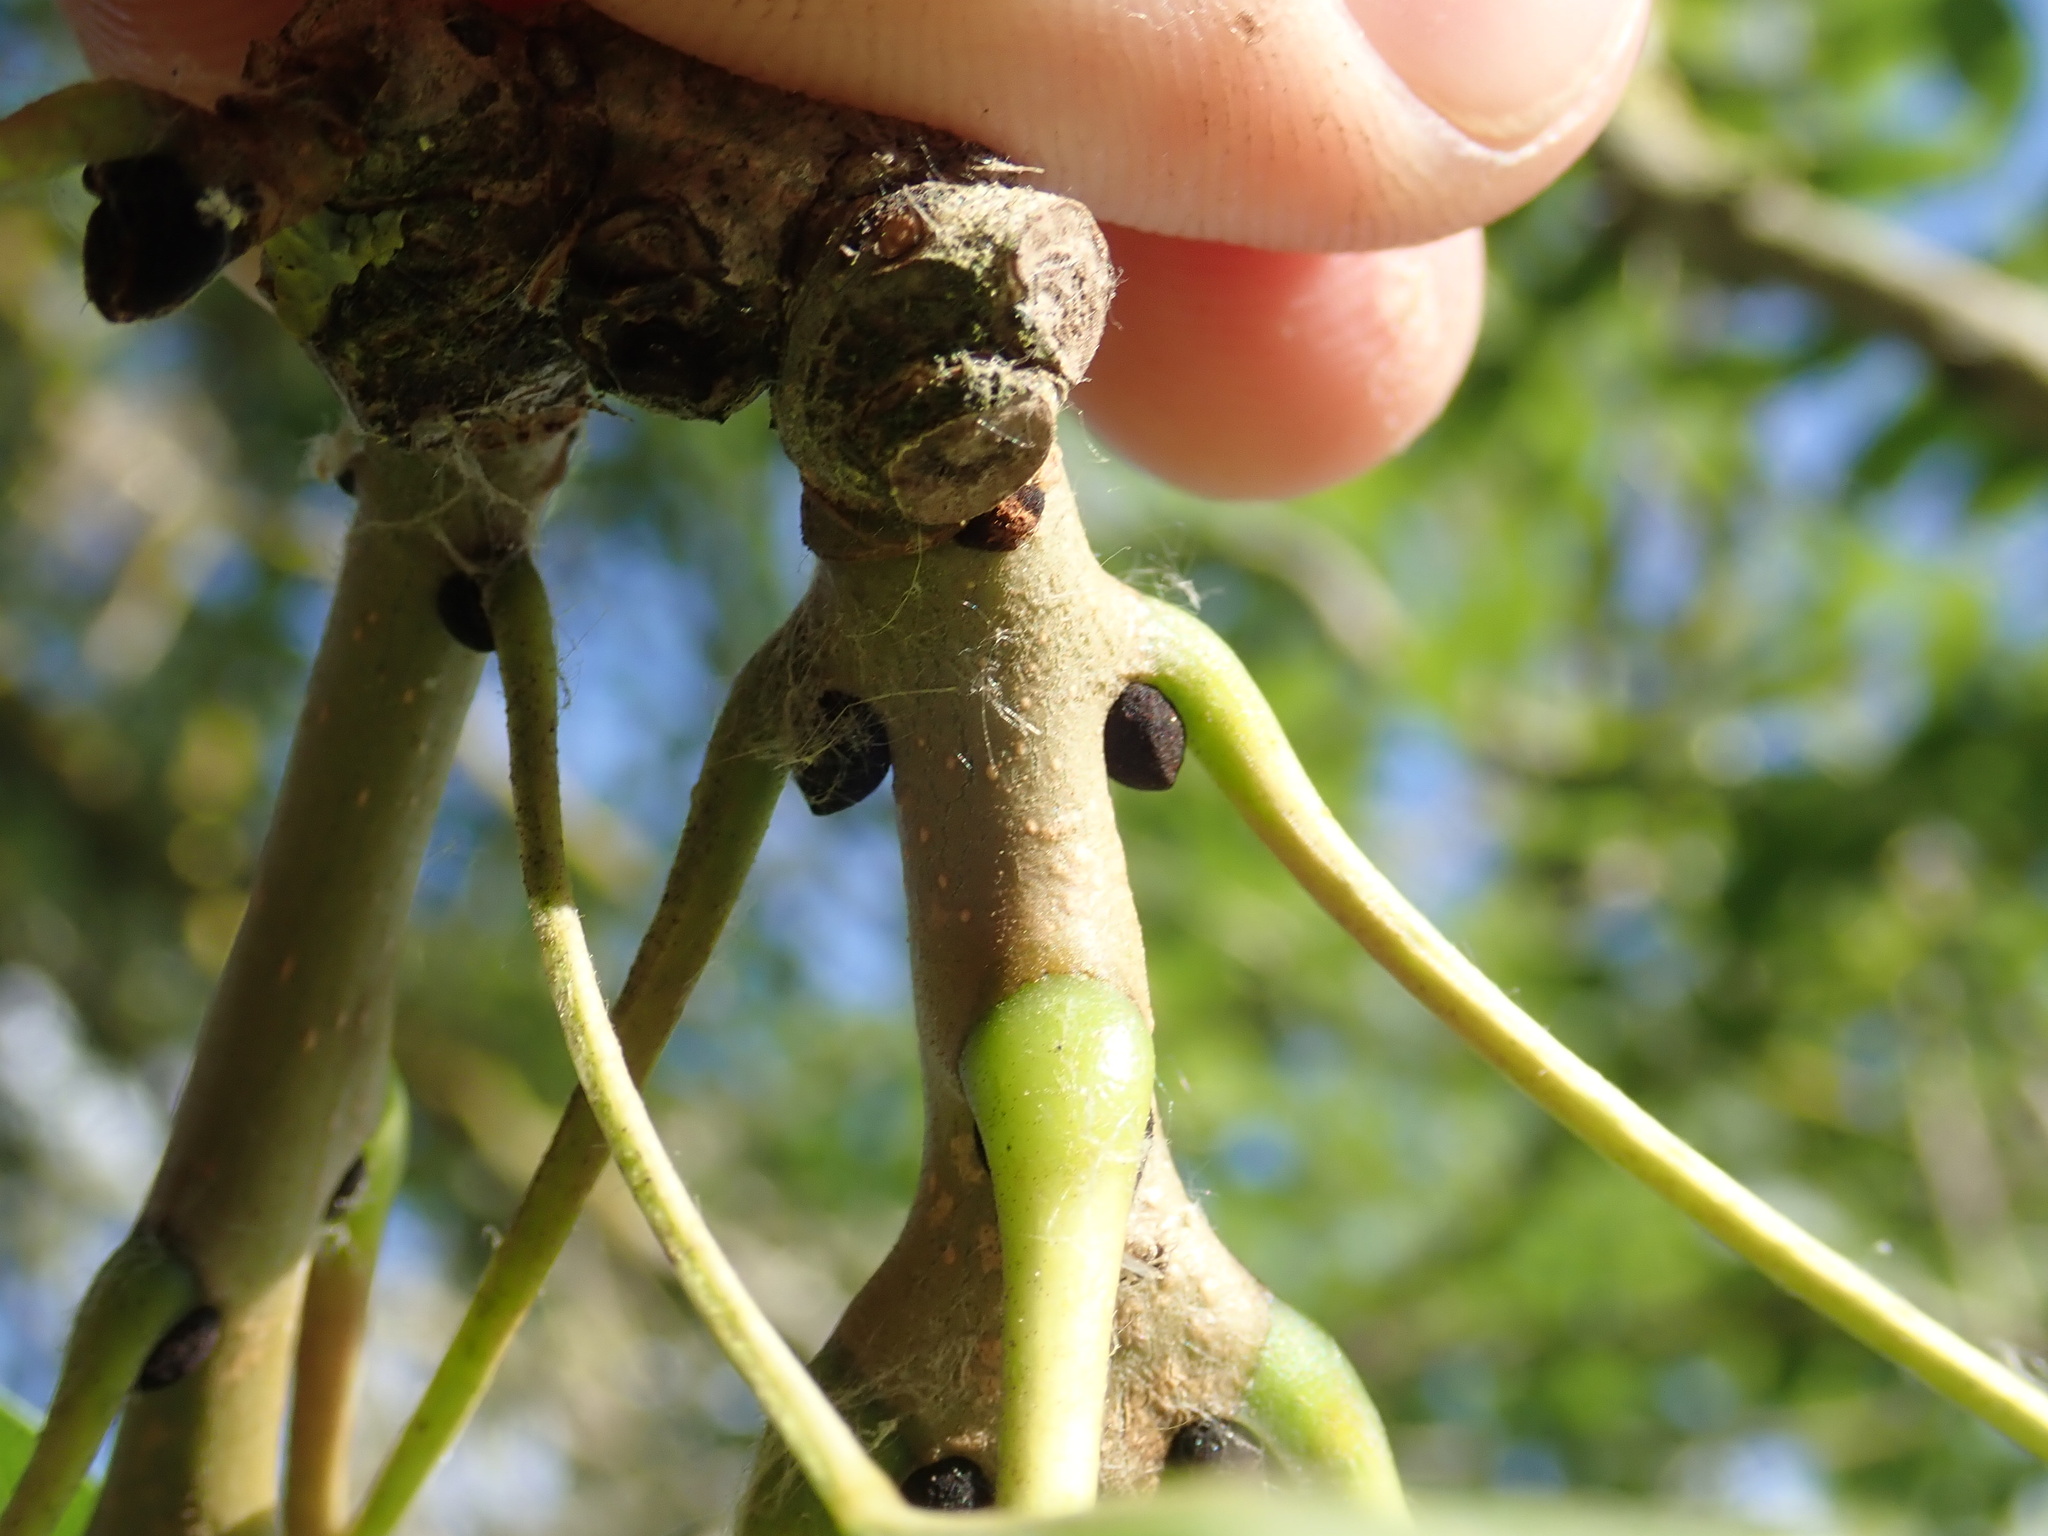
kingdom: Plantae
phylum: Tracheophyta
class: Magnoliopsida
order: Lamiales
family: Oleaceae
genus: Fraxinus
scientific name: Fraxinus excelsior
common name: European ash
